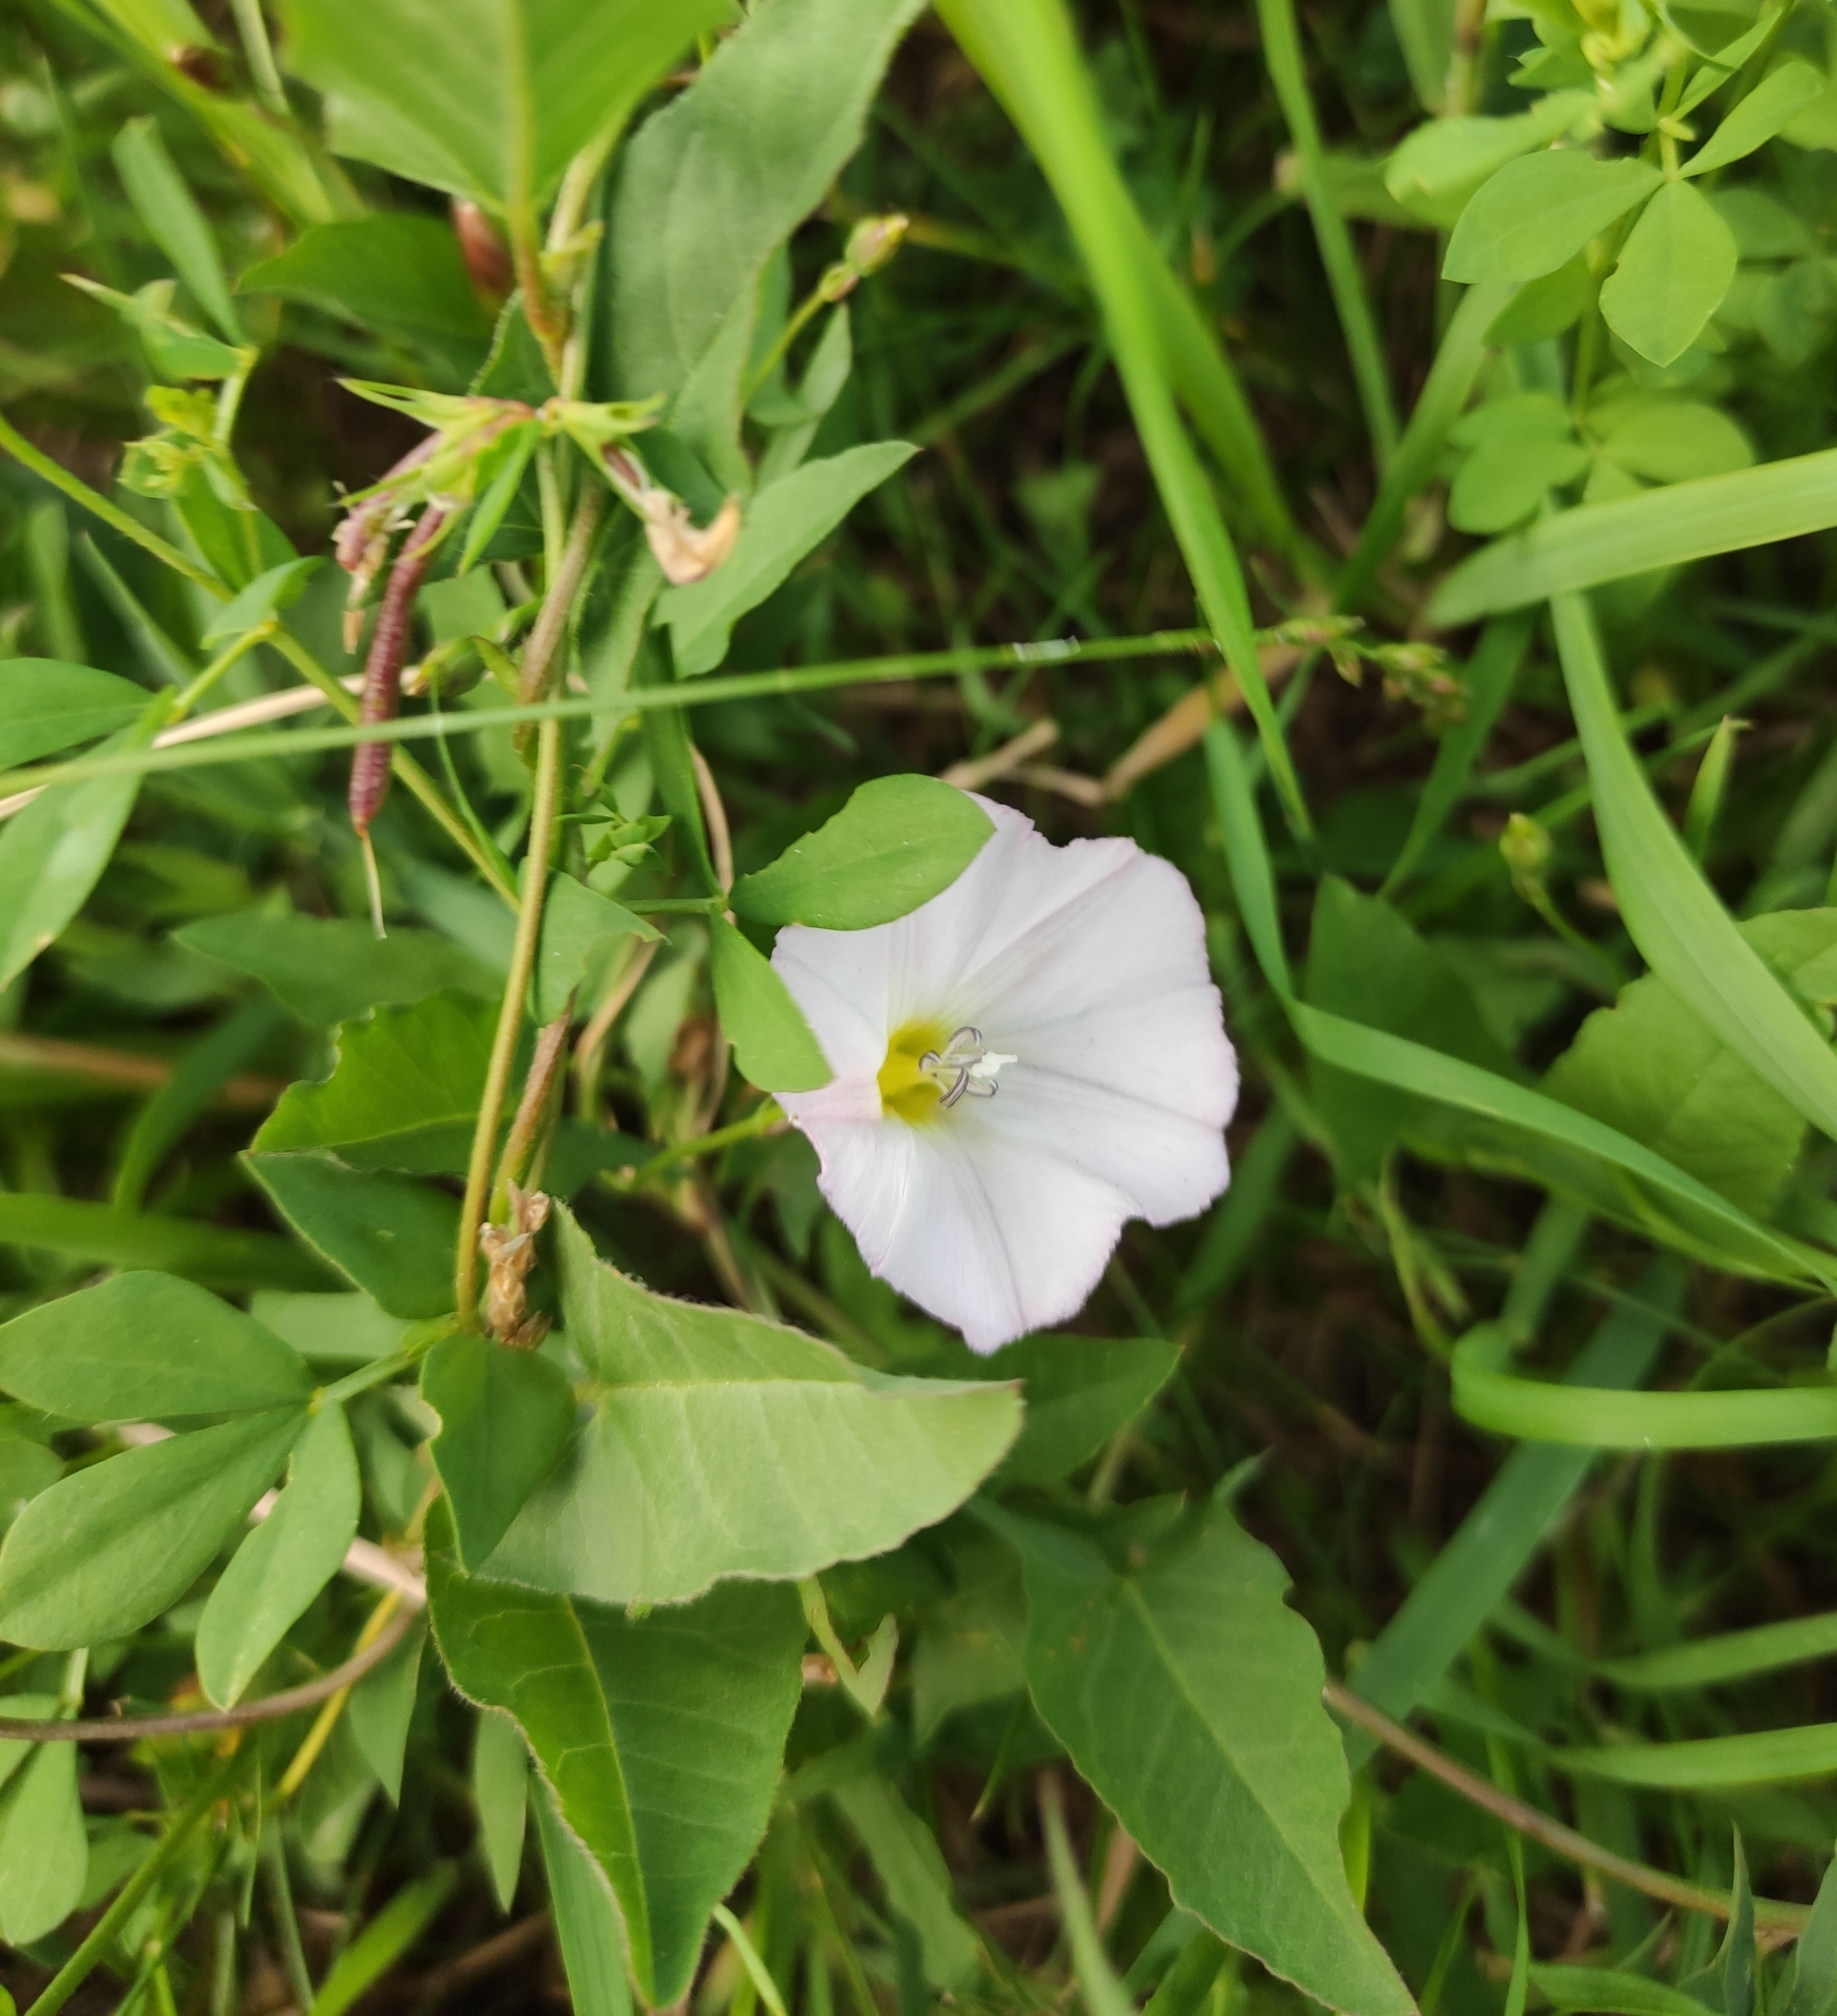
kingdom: Plantae
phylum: Tracheophyta
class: Magnoliopsida
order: Solanales
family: Convolvulaceae
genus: Convolvulus
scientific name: Convolvulus arvensis
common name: Field bindweed
